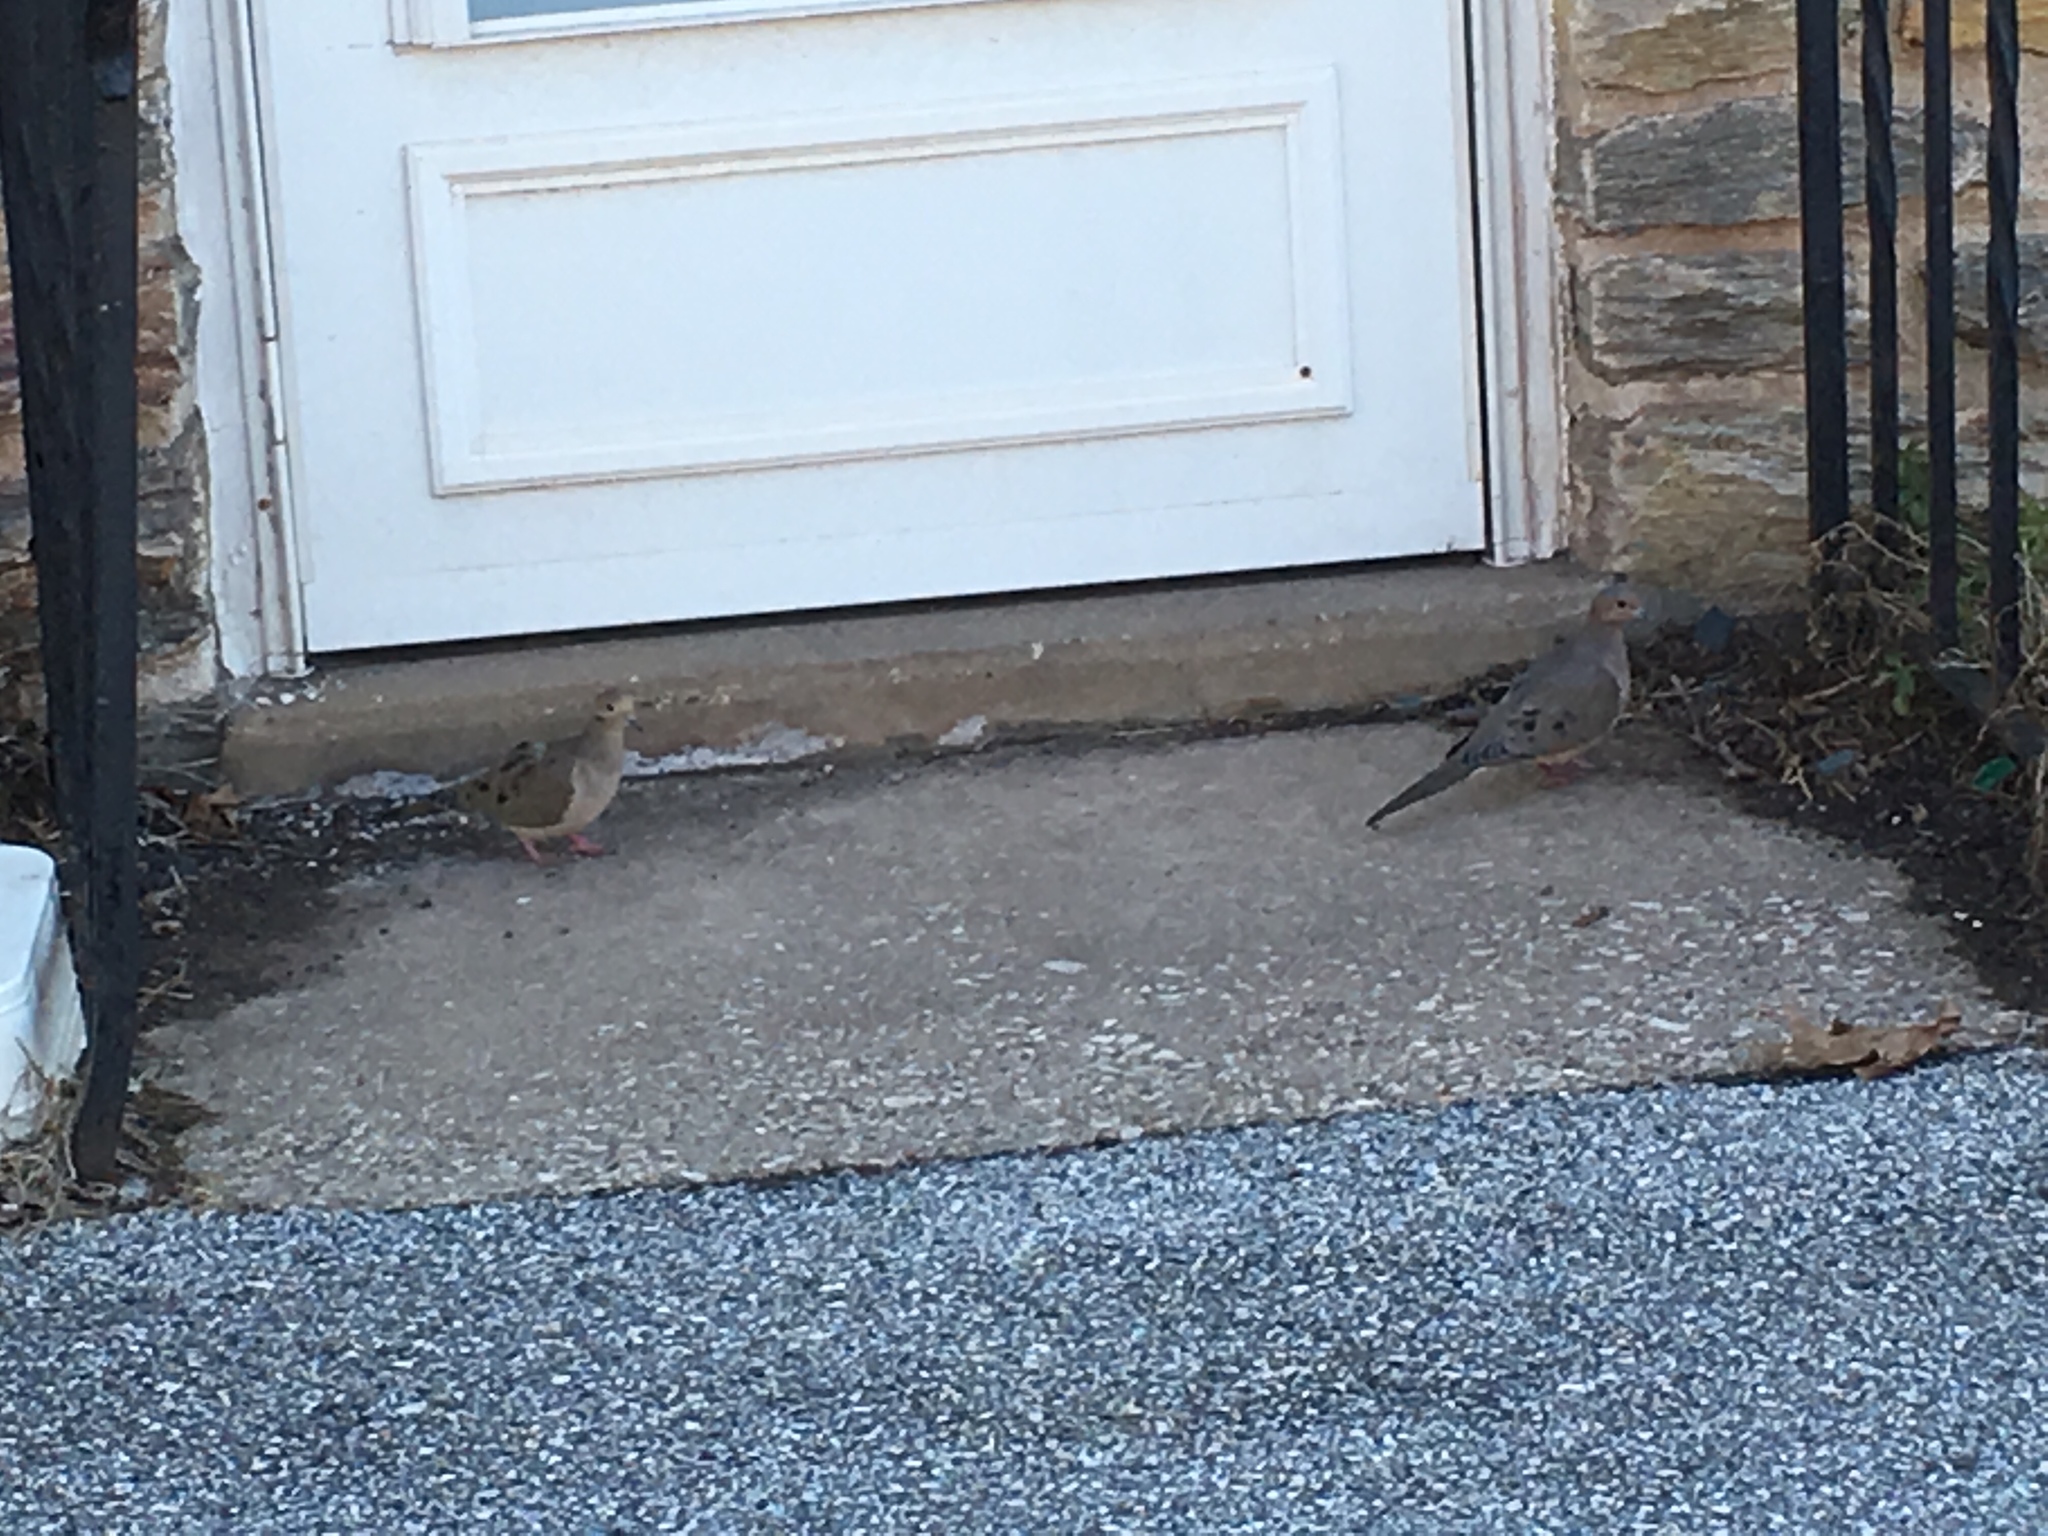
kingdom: Animalia
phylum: Chordata
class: Aves
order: Columbiformes
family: Columbidae
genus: Zenaida
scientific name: Zenaida macroura
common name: Mourning dove
